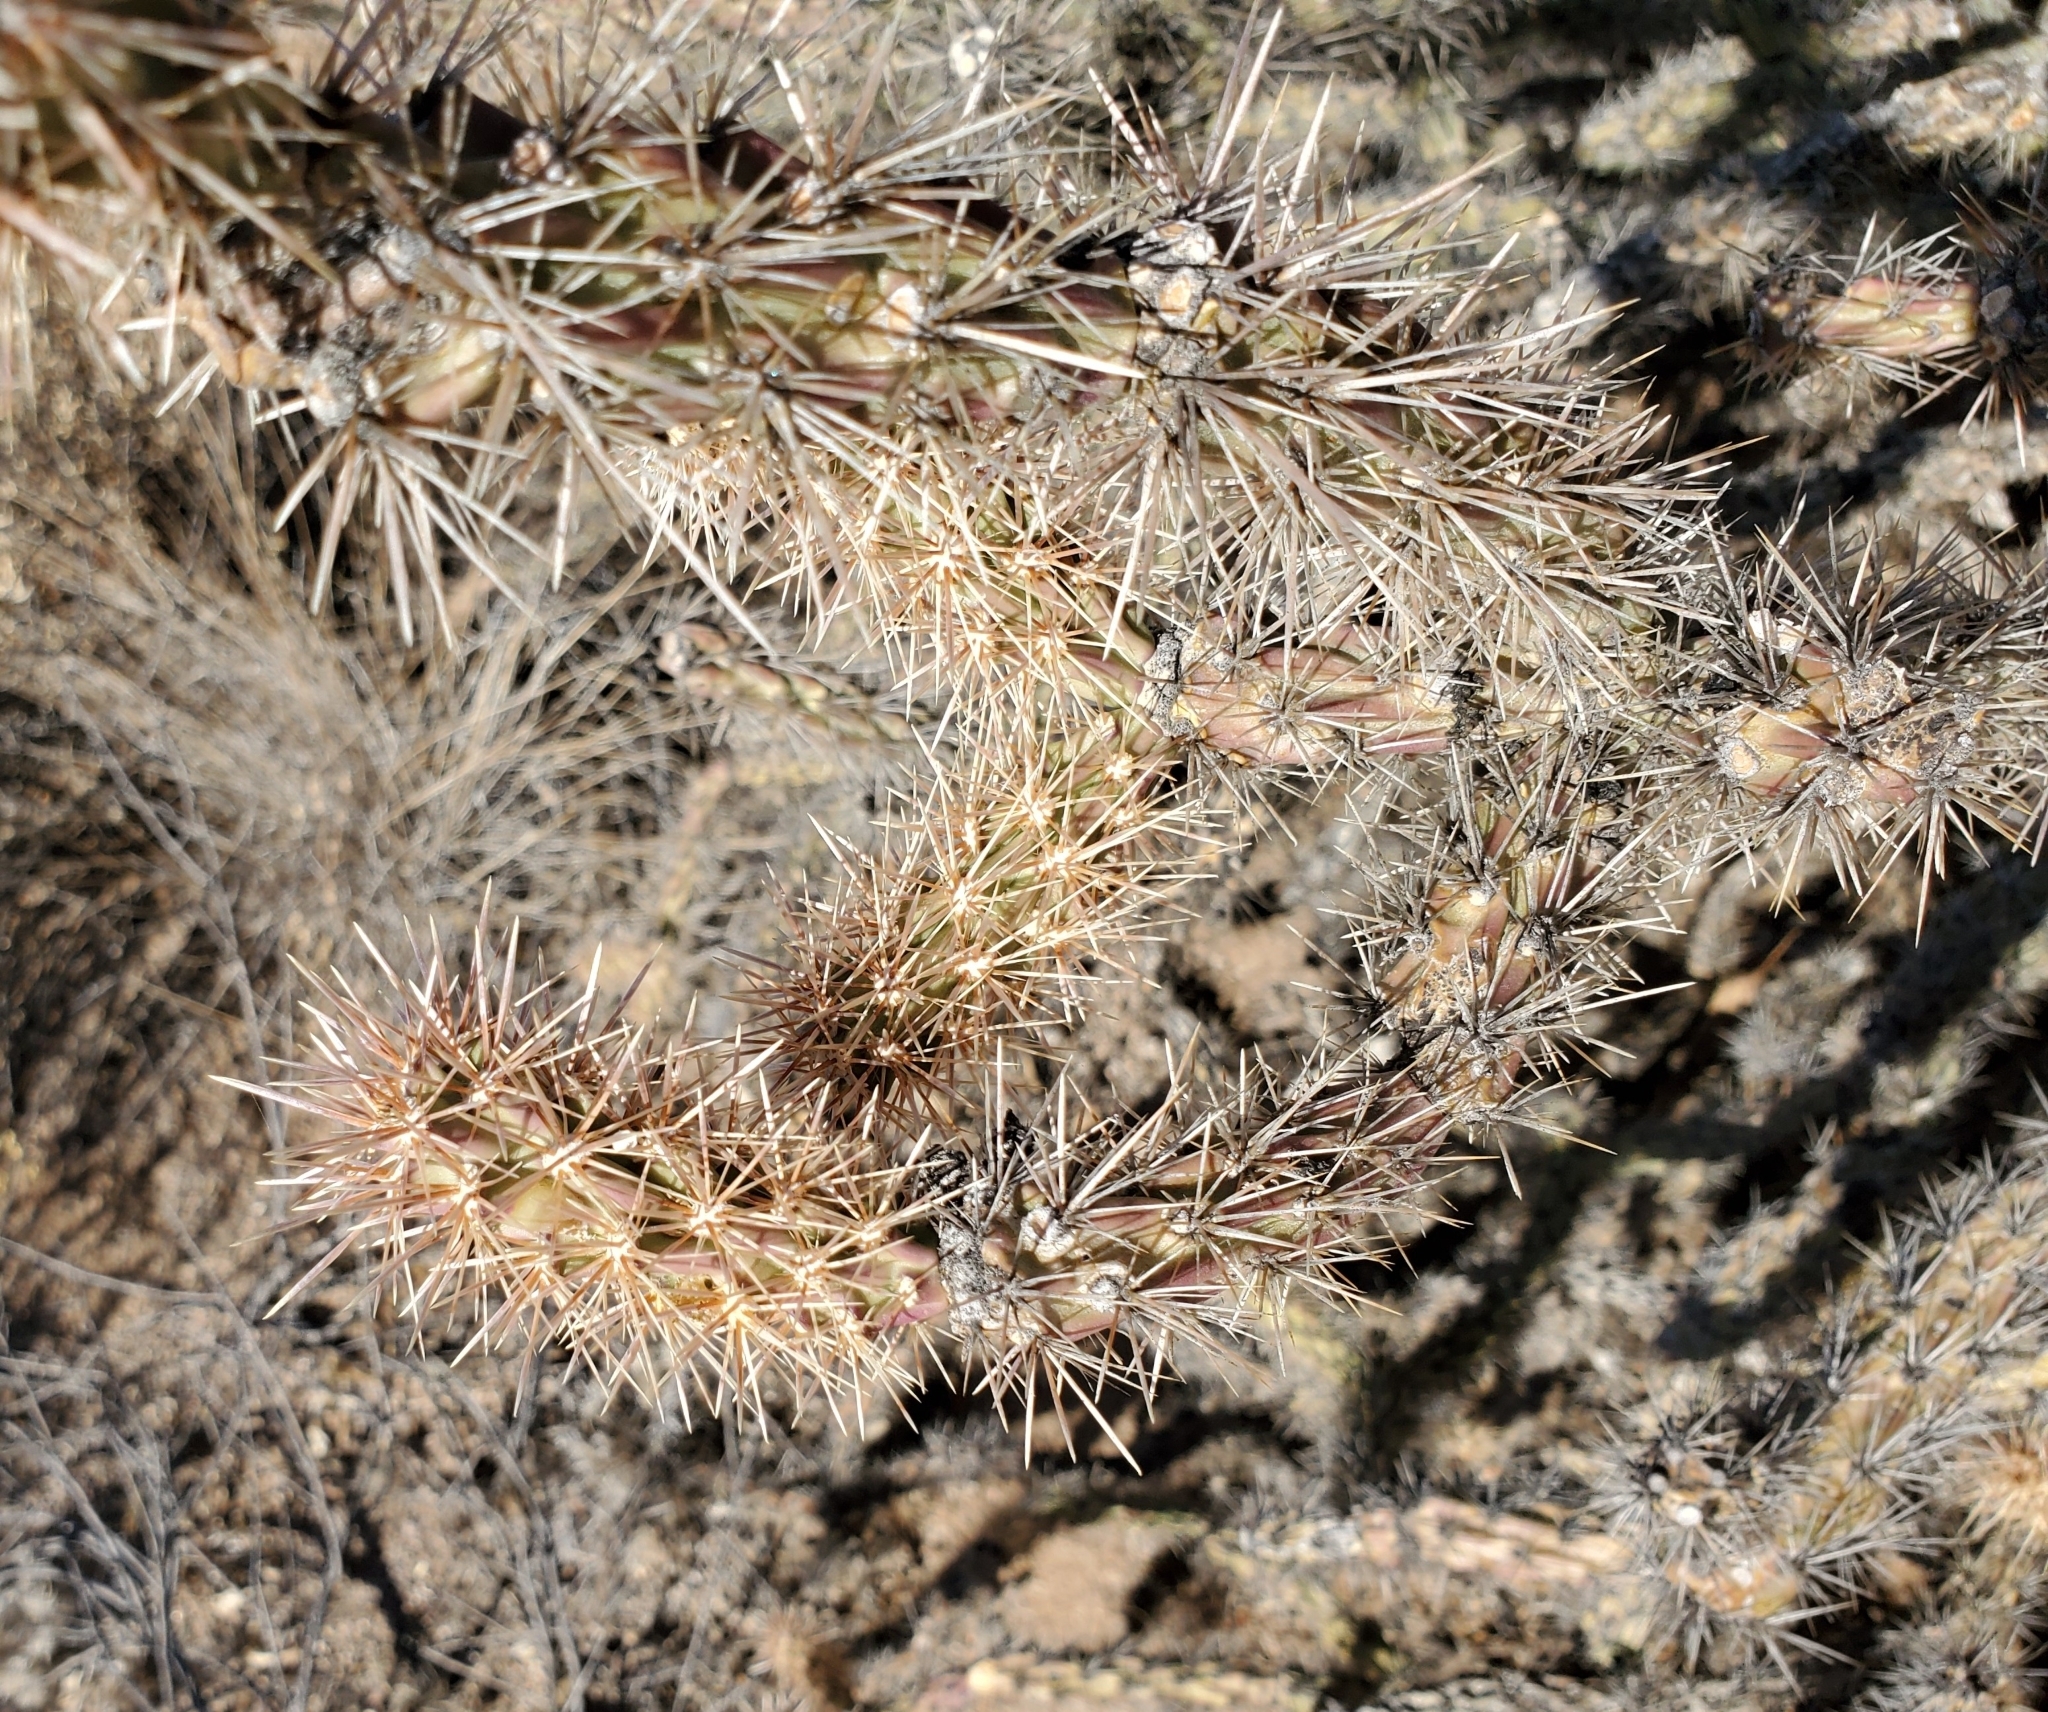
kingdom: Plantae
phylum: Tracheophyta
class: Magnoliopsida
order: Caryophyllales
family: Cactaceae
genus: Cylindropuntia
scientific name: Cylindropuntia acanthocarpa
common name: Buckhorn cholla
